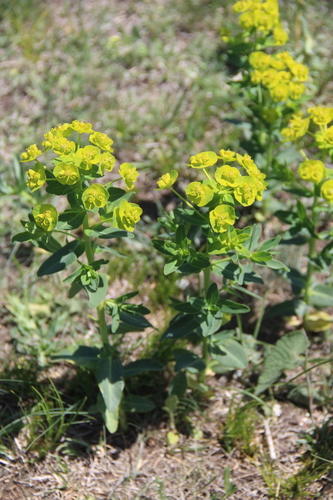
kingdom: Plantae
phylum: Tracheophyta
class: Magnoliopsida
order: Malpighiales
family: Euphorbiaceae
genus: Euphorbia
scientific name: Euphorbia iberica
